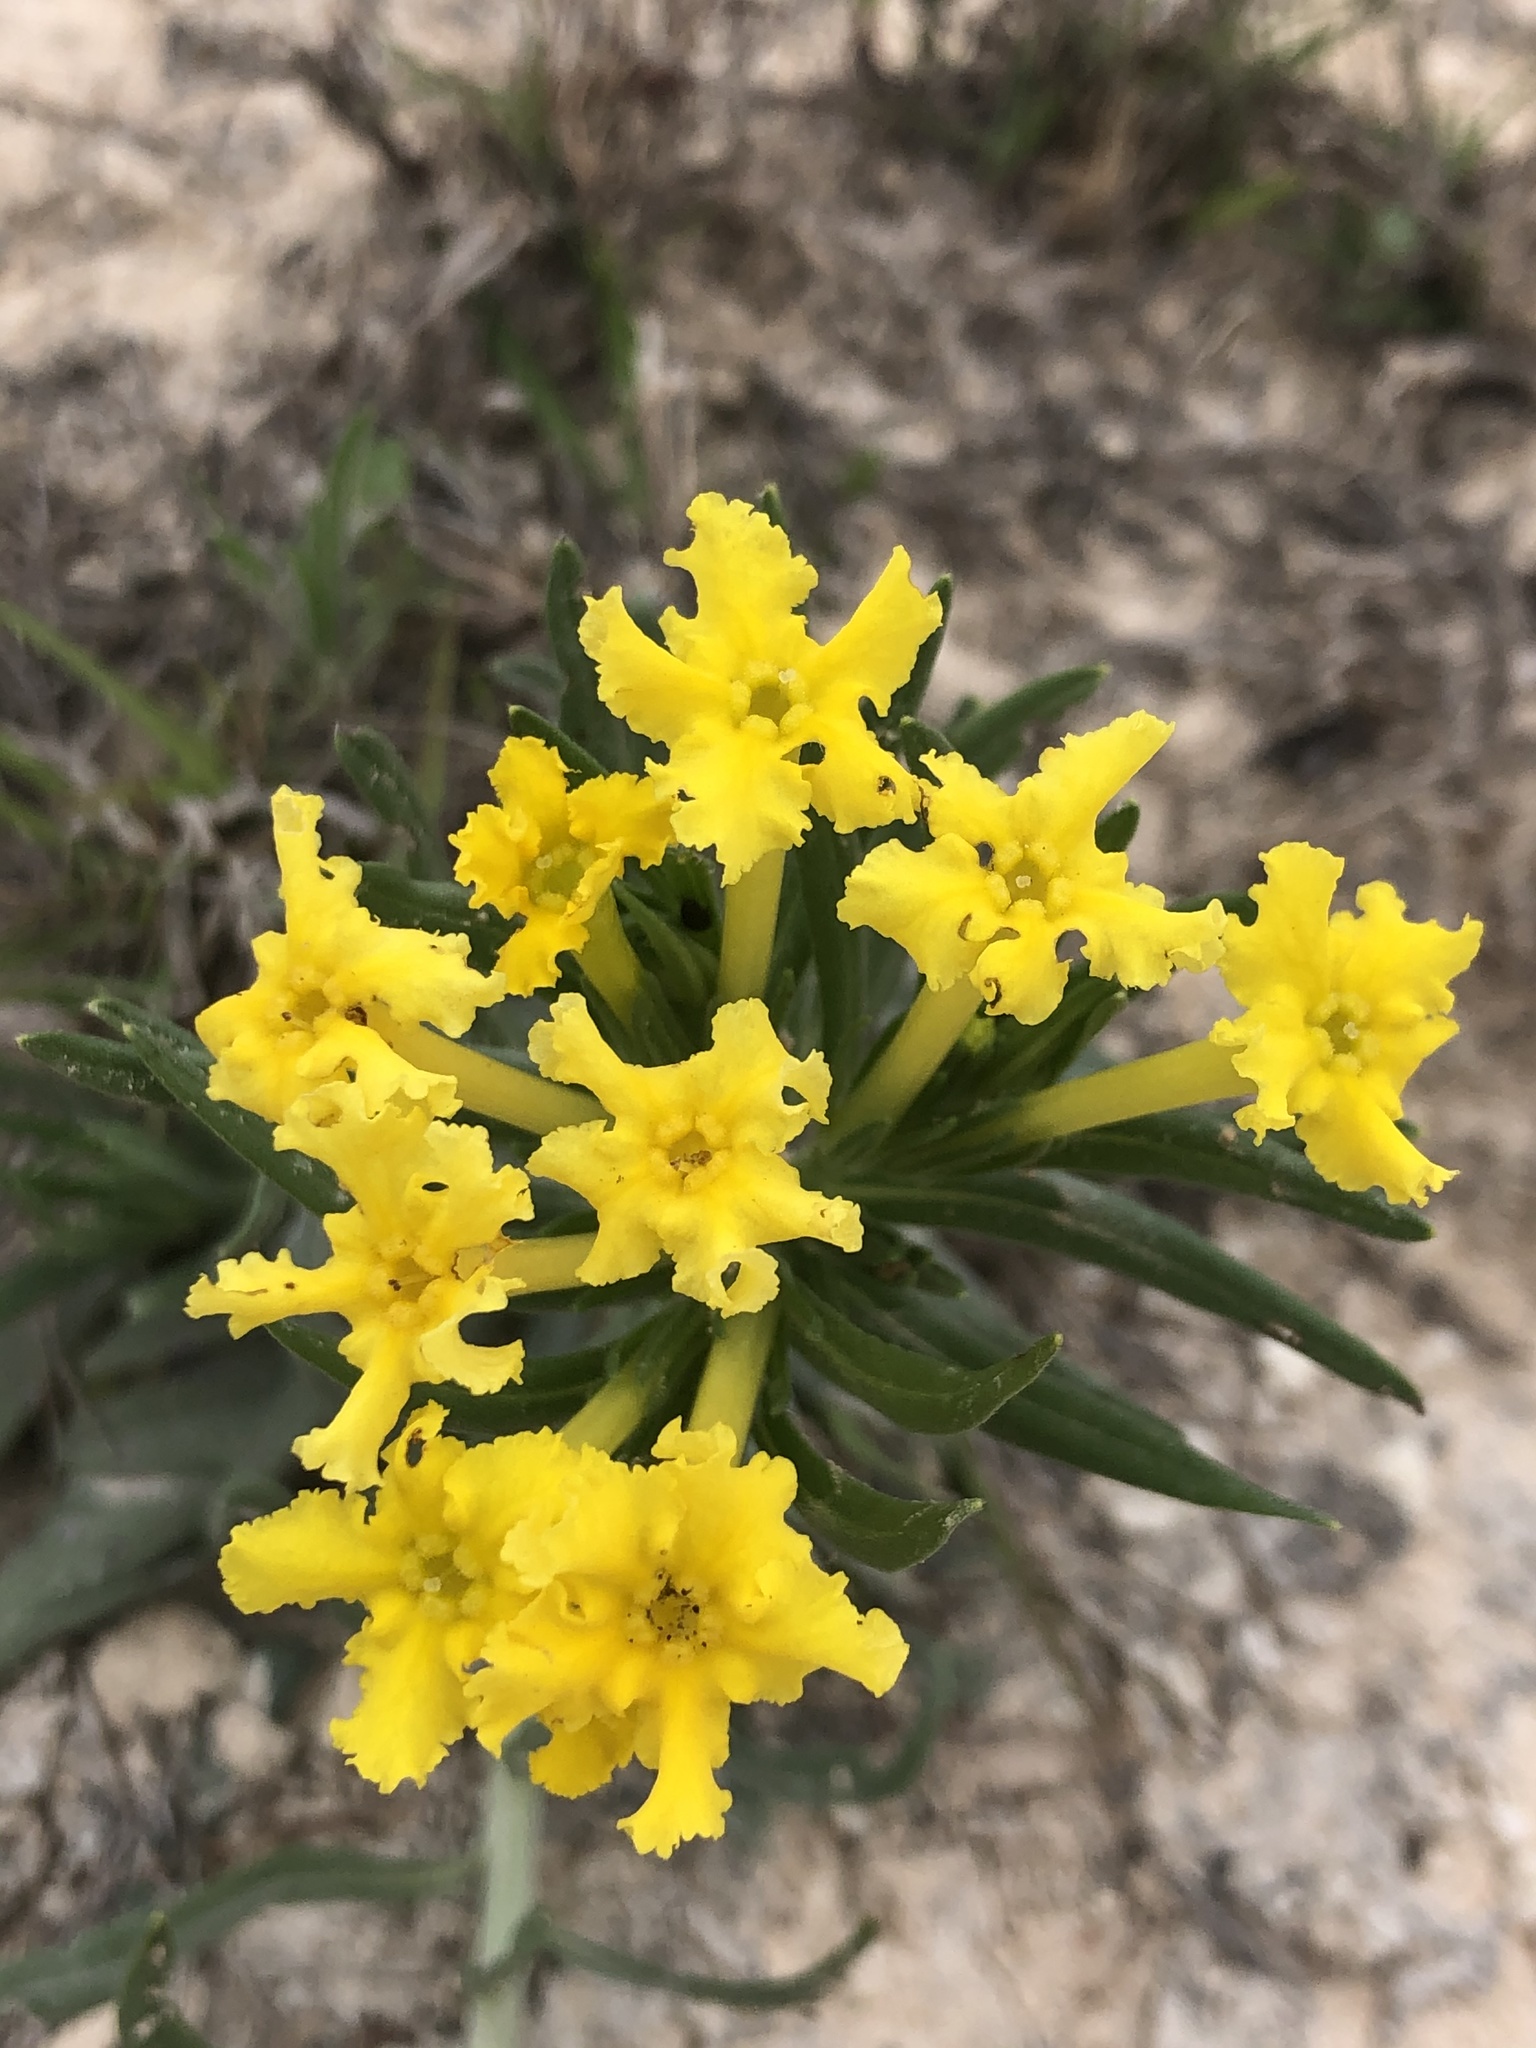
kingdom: Plantae
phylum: Tracheophyta
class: Magnoliopsida
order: Boraginales
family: Boraginaceae
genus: Lithospermum
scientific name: Lithospermum incisum
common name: Fringed gromwell
